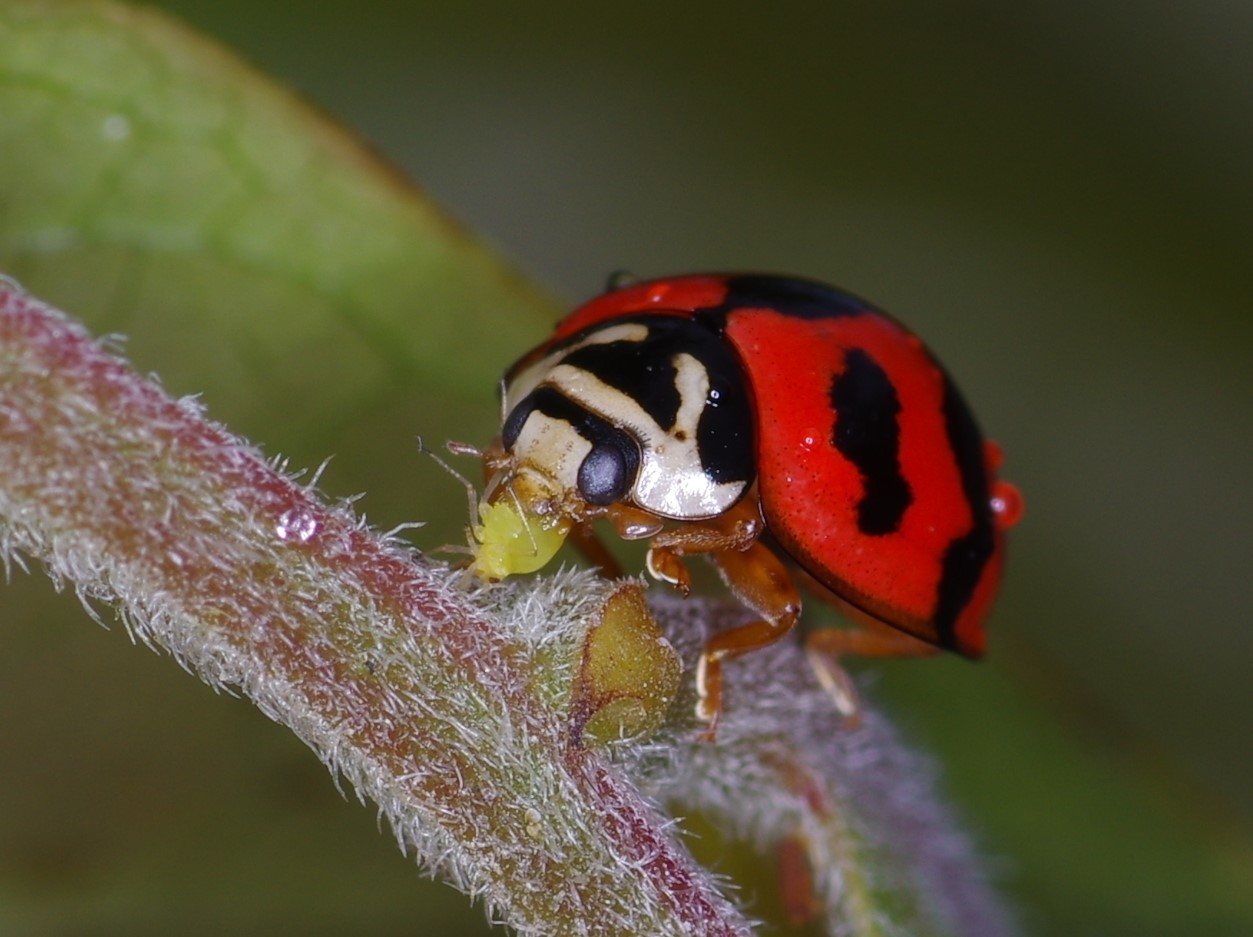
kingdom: Animalia
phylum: Arthropoda
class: Insecta
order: Coleoptera
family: Coccinellidae
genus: Cheilomenes
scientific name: Cheilomenes sexmaculata
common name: Ladybird beetle
